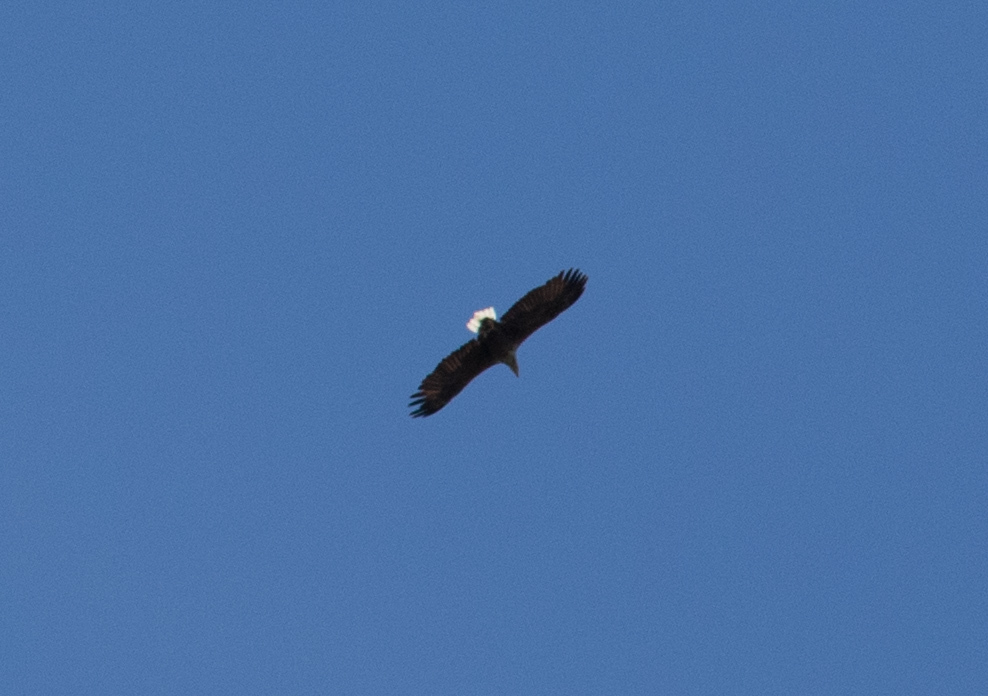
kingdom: Animalia
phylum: Chordata
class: Aves
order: Accipitriformes
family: Accipitridae
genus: Haliaeetus
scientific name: Haliaeetus albicilla
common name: White-tailed eagle
